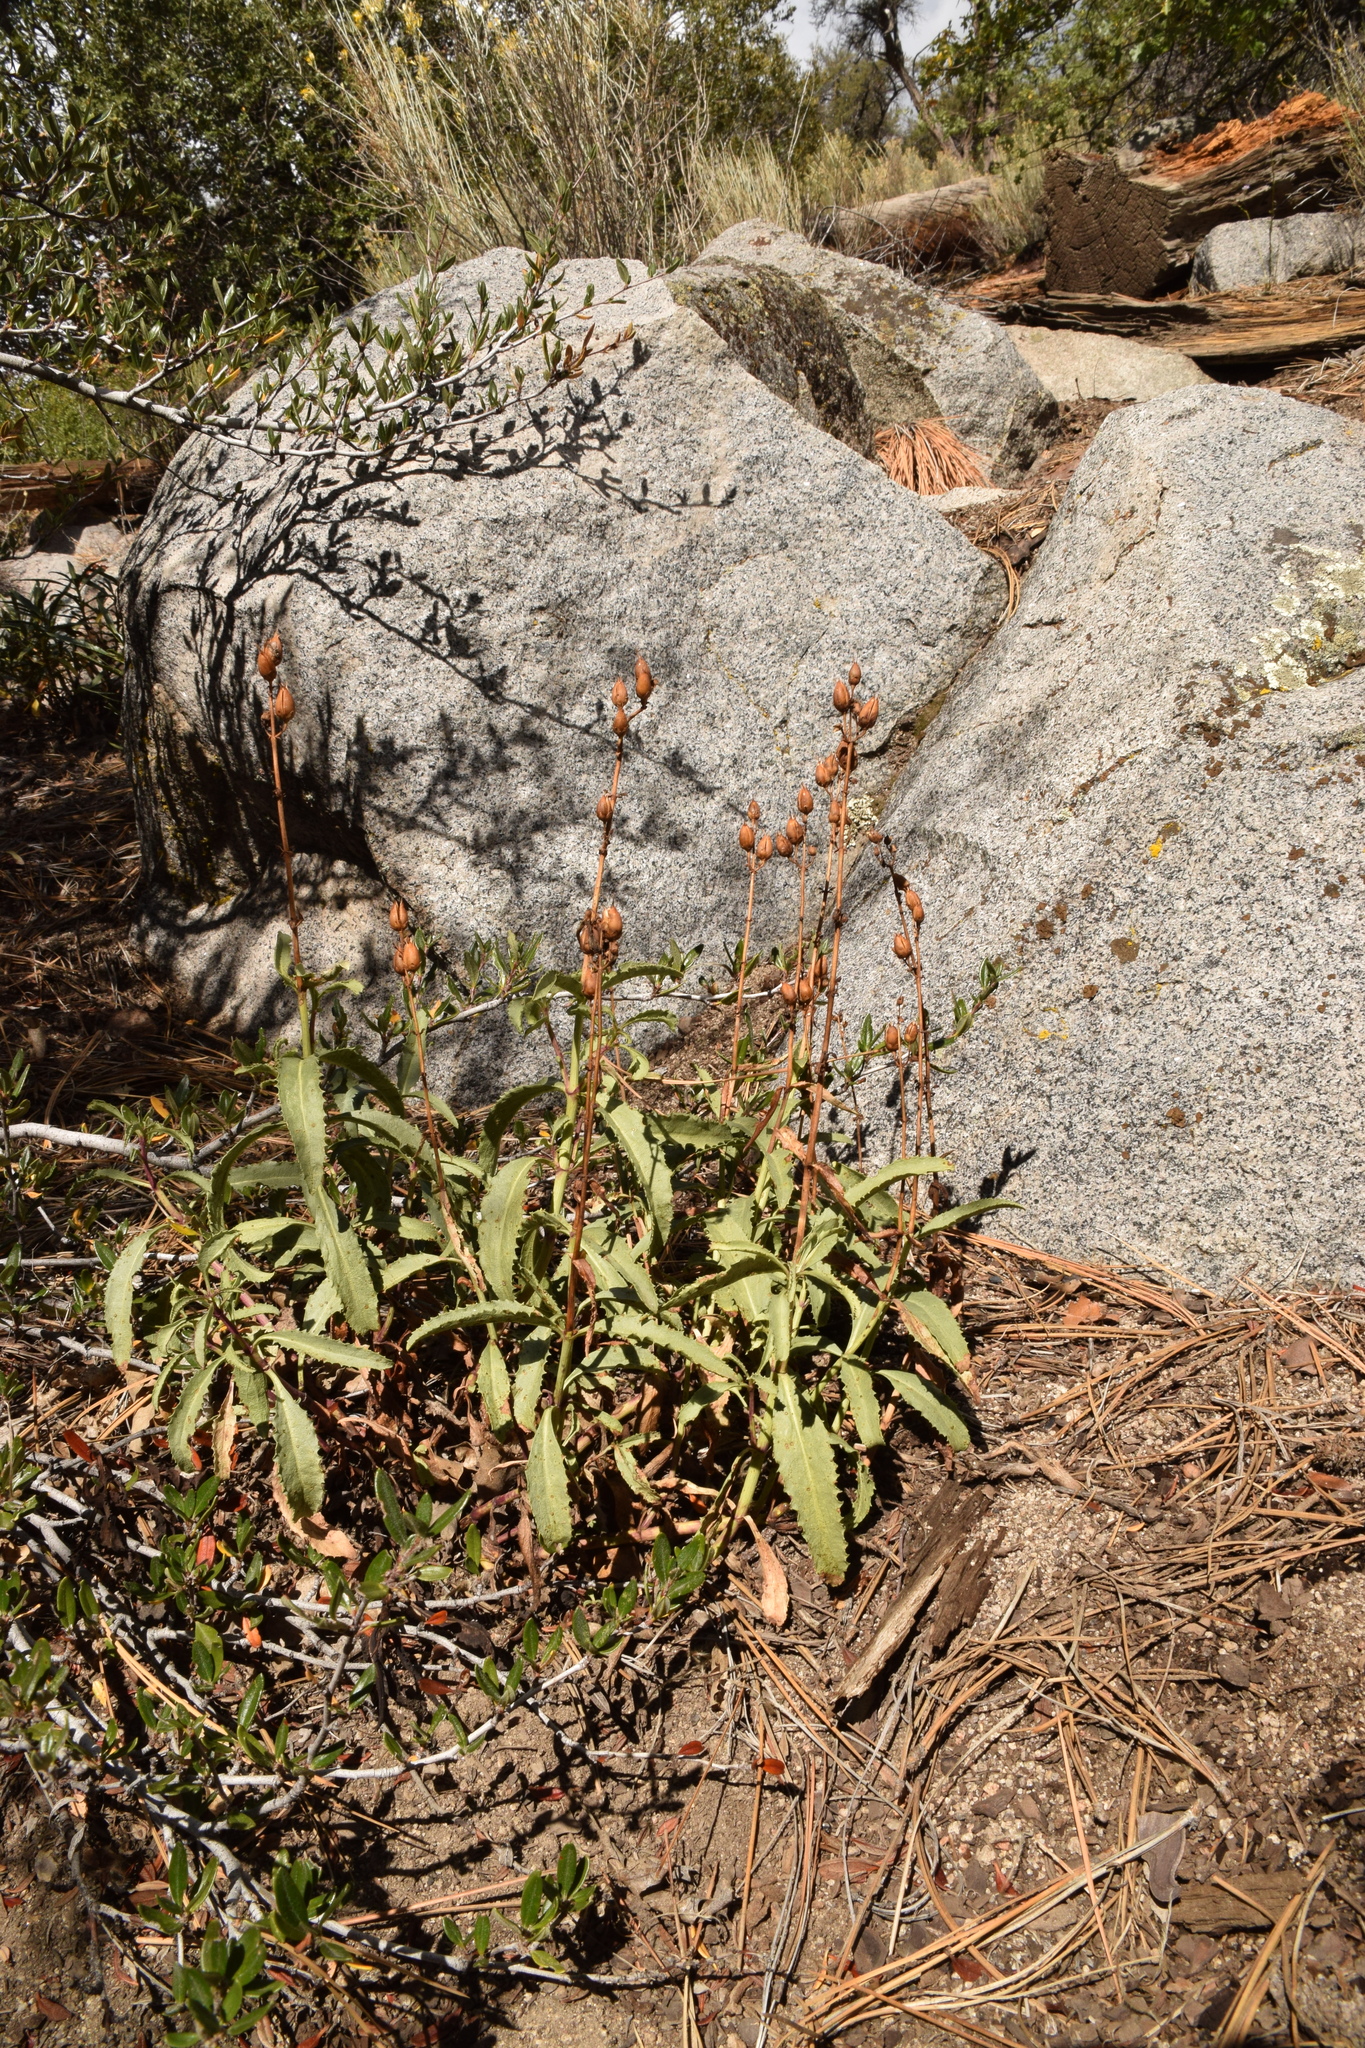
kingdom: Plantae
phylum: Tracheophyta
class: Magnoliopsida
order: Lamiales
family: Plantaginaceae
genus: Penstemon
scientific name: Penstemon grinnellii
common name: Grinnell's beardtongue
